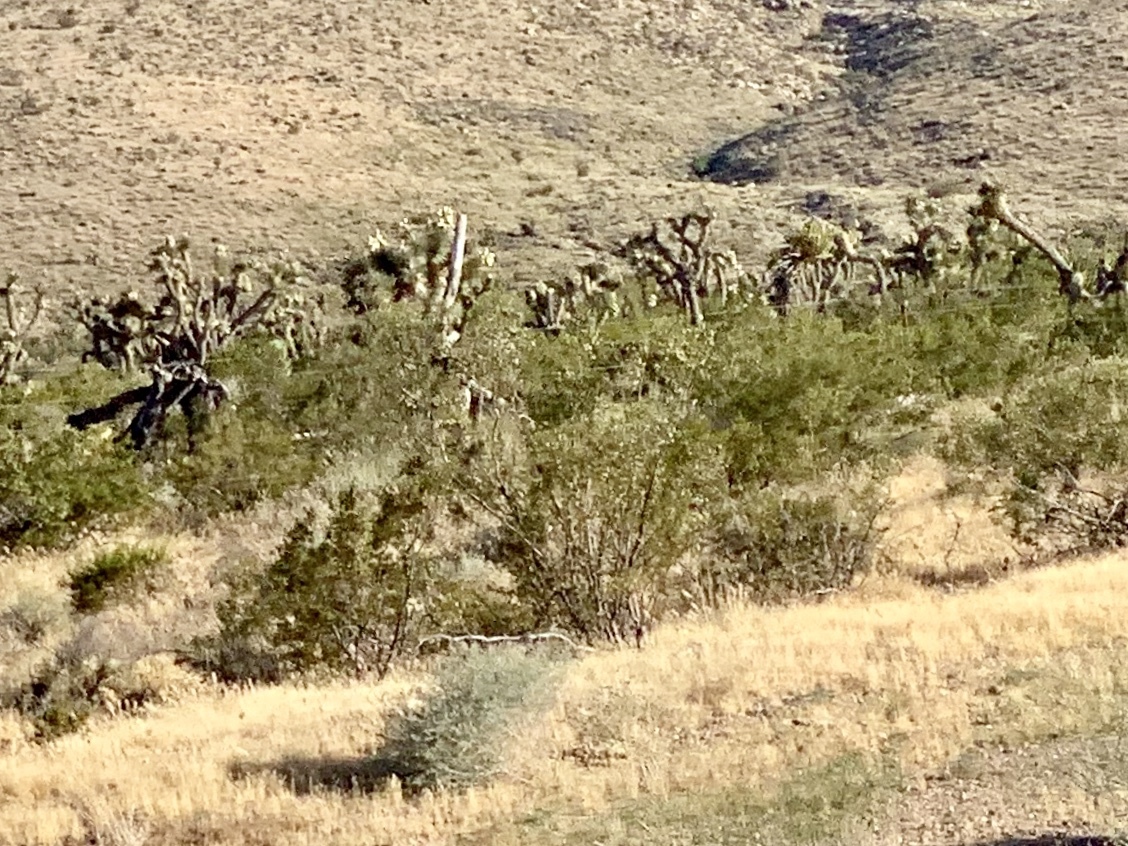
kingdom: Plantae
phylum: Tracheophyta
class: Magnoliopsida
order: Zygophyllales
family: Zygophyllaceae
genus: Larrea
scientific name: Larrea tridentata
